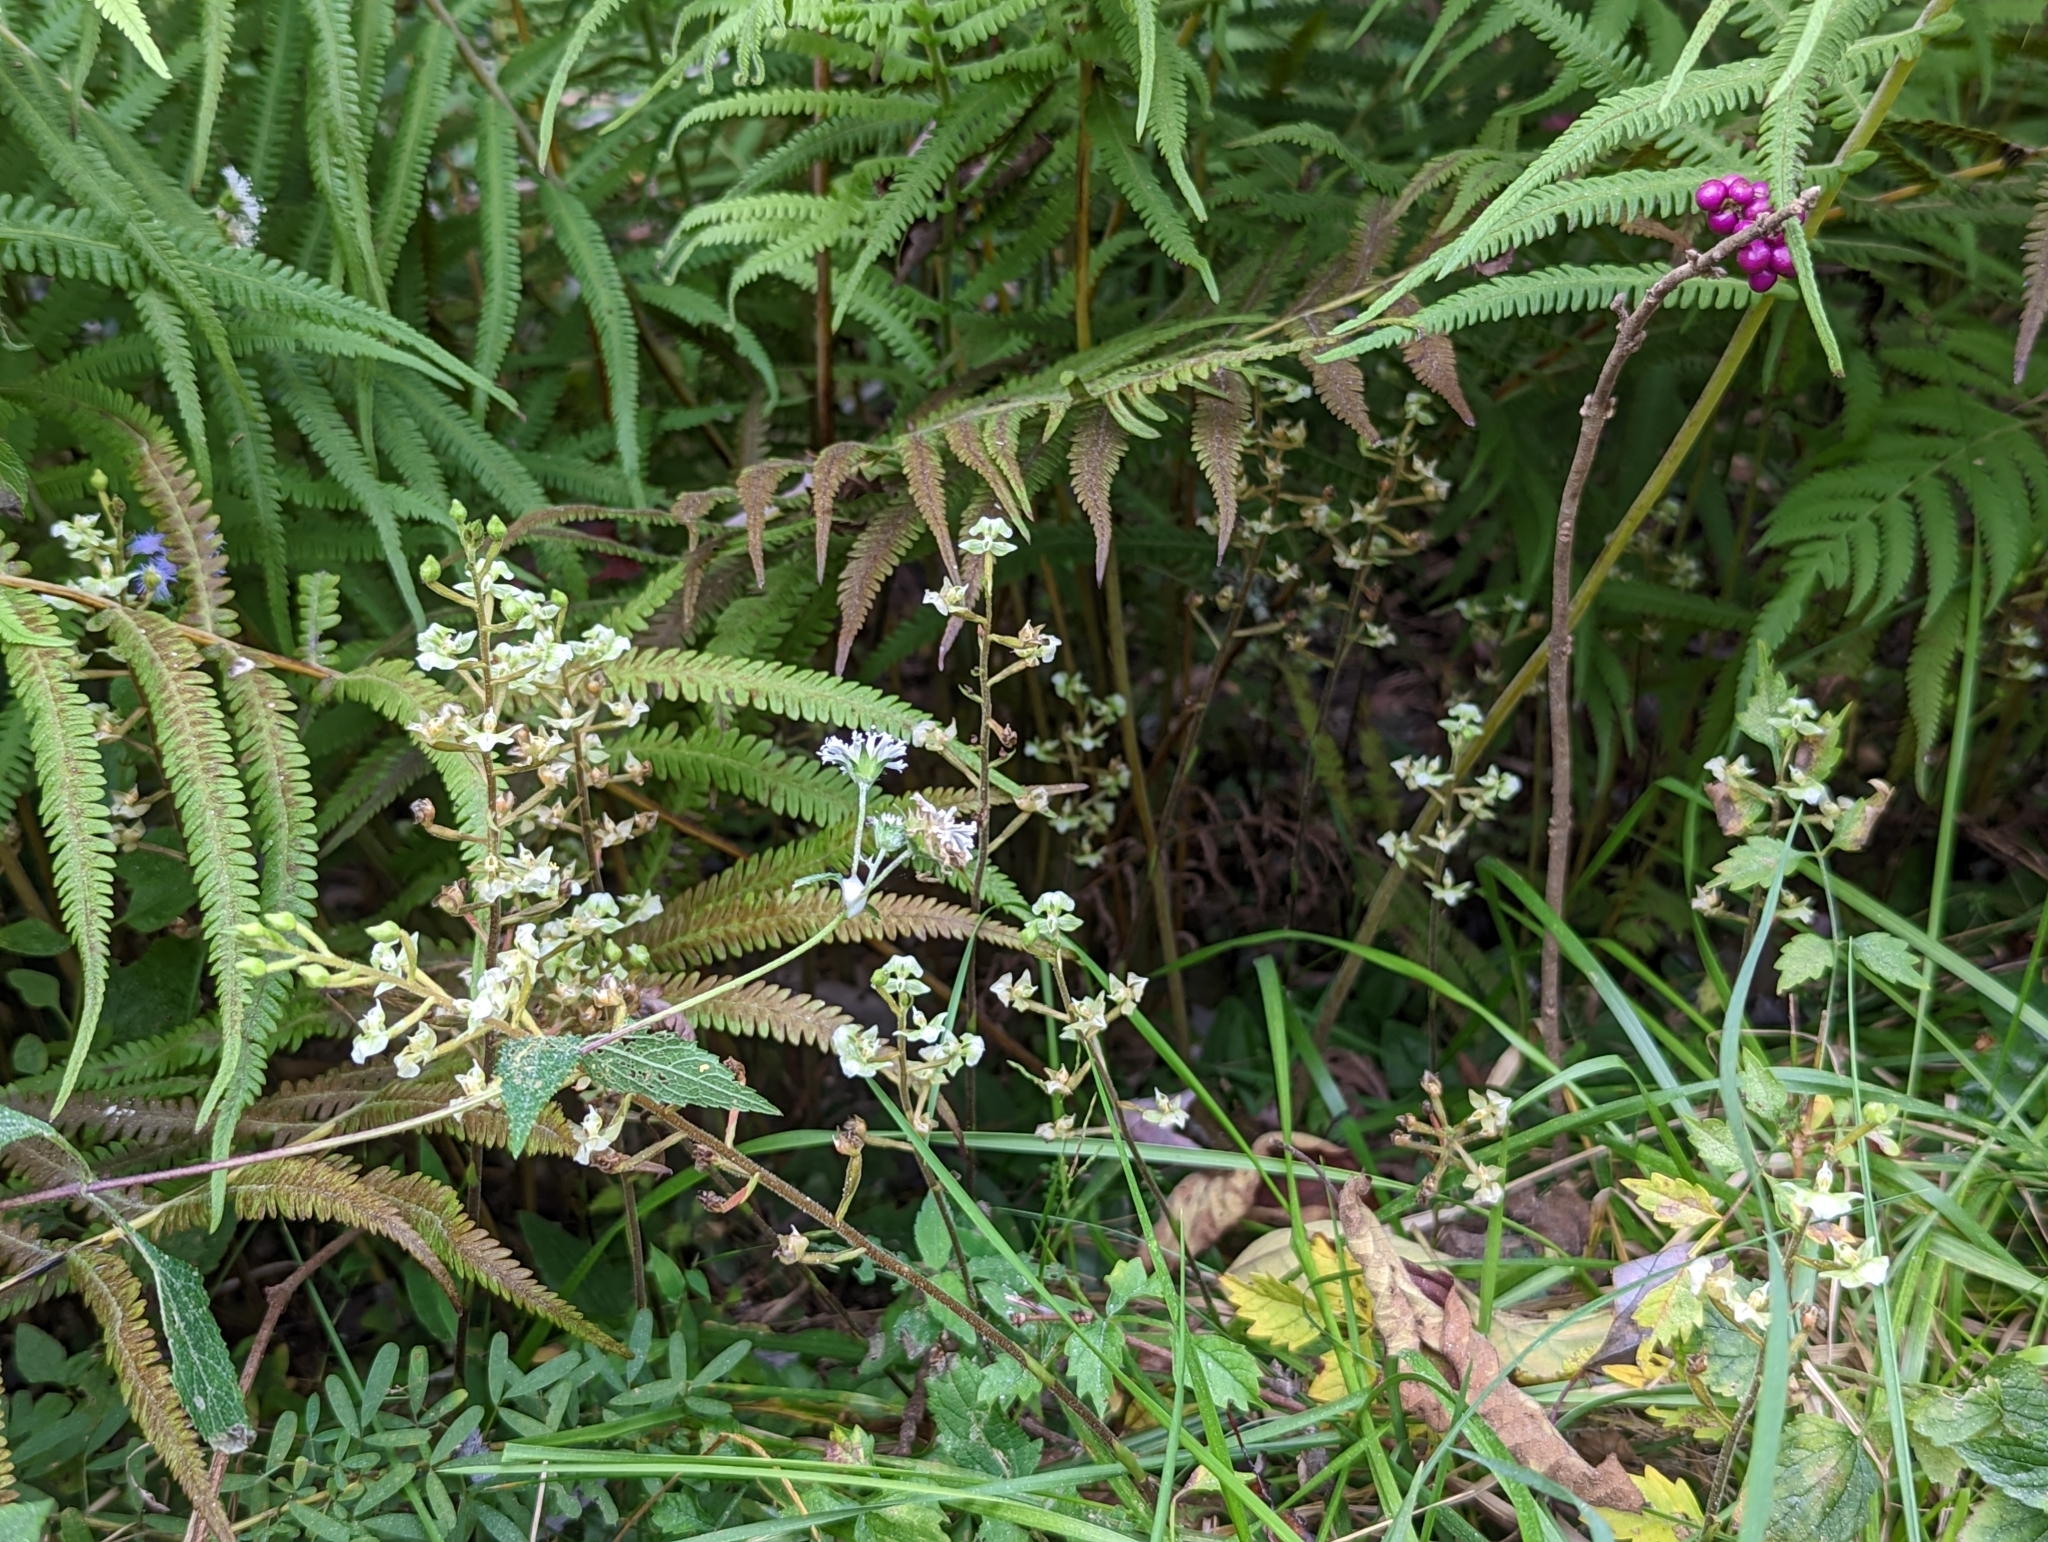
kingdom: Plantae
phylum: Tracheophyta
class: Liliopsida
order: Asparagales
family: Orchidaceae
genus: Ponthieva
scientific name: Ponthieva racemosa
